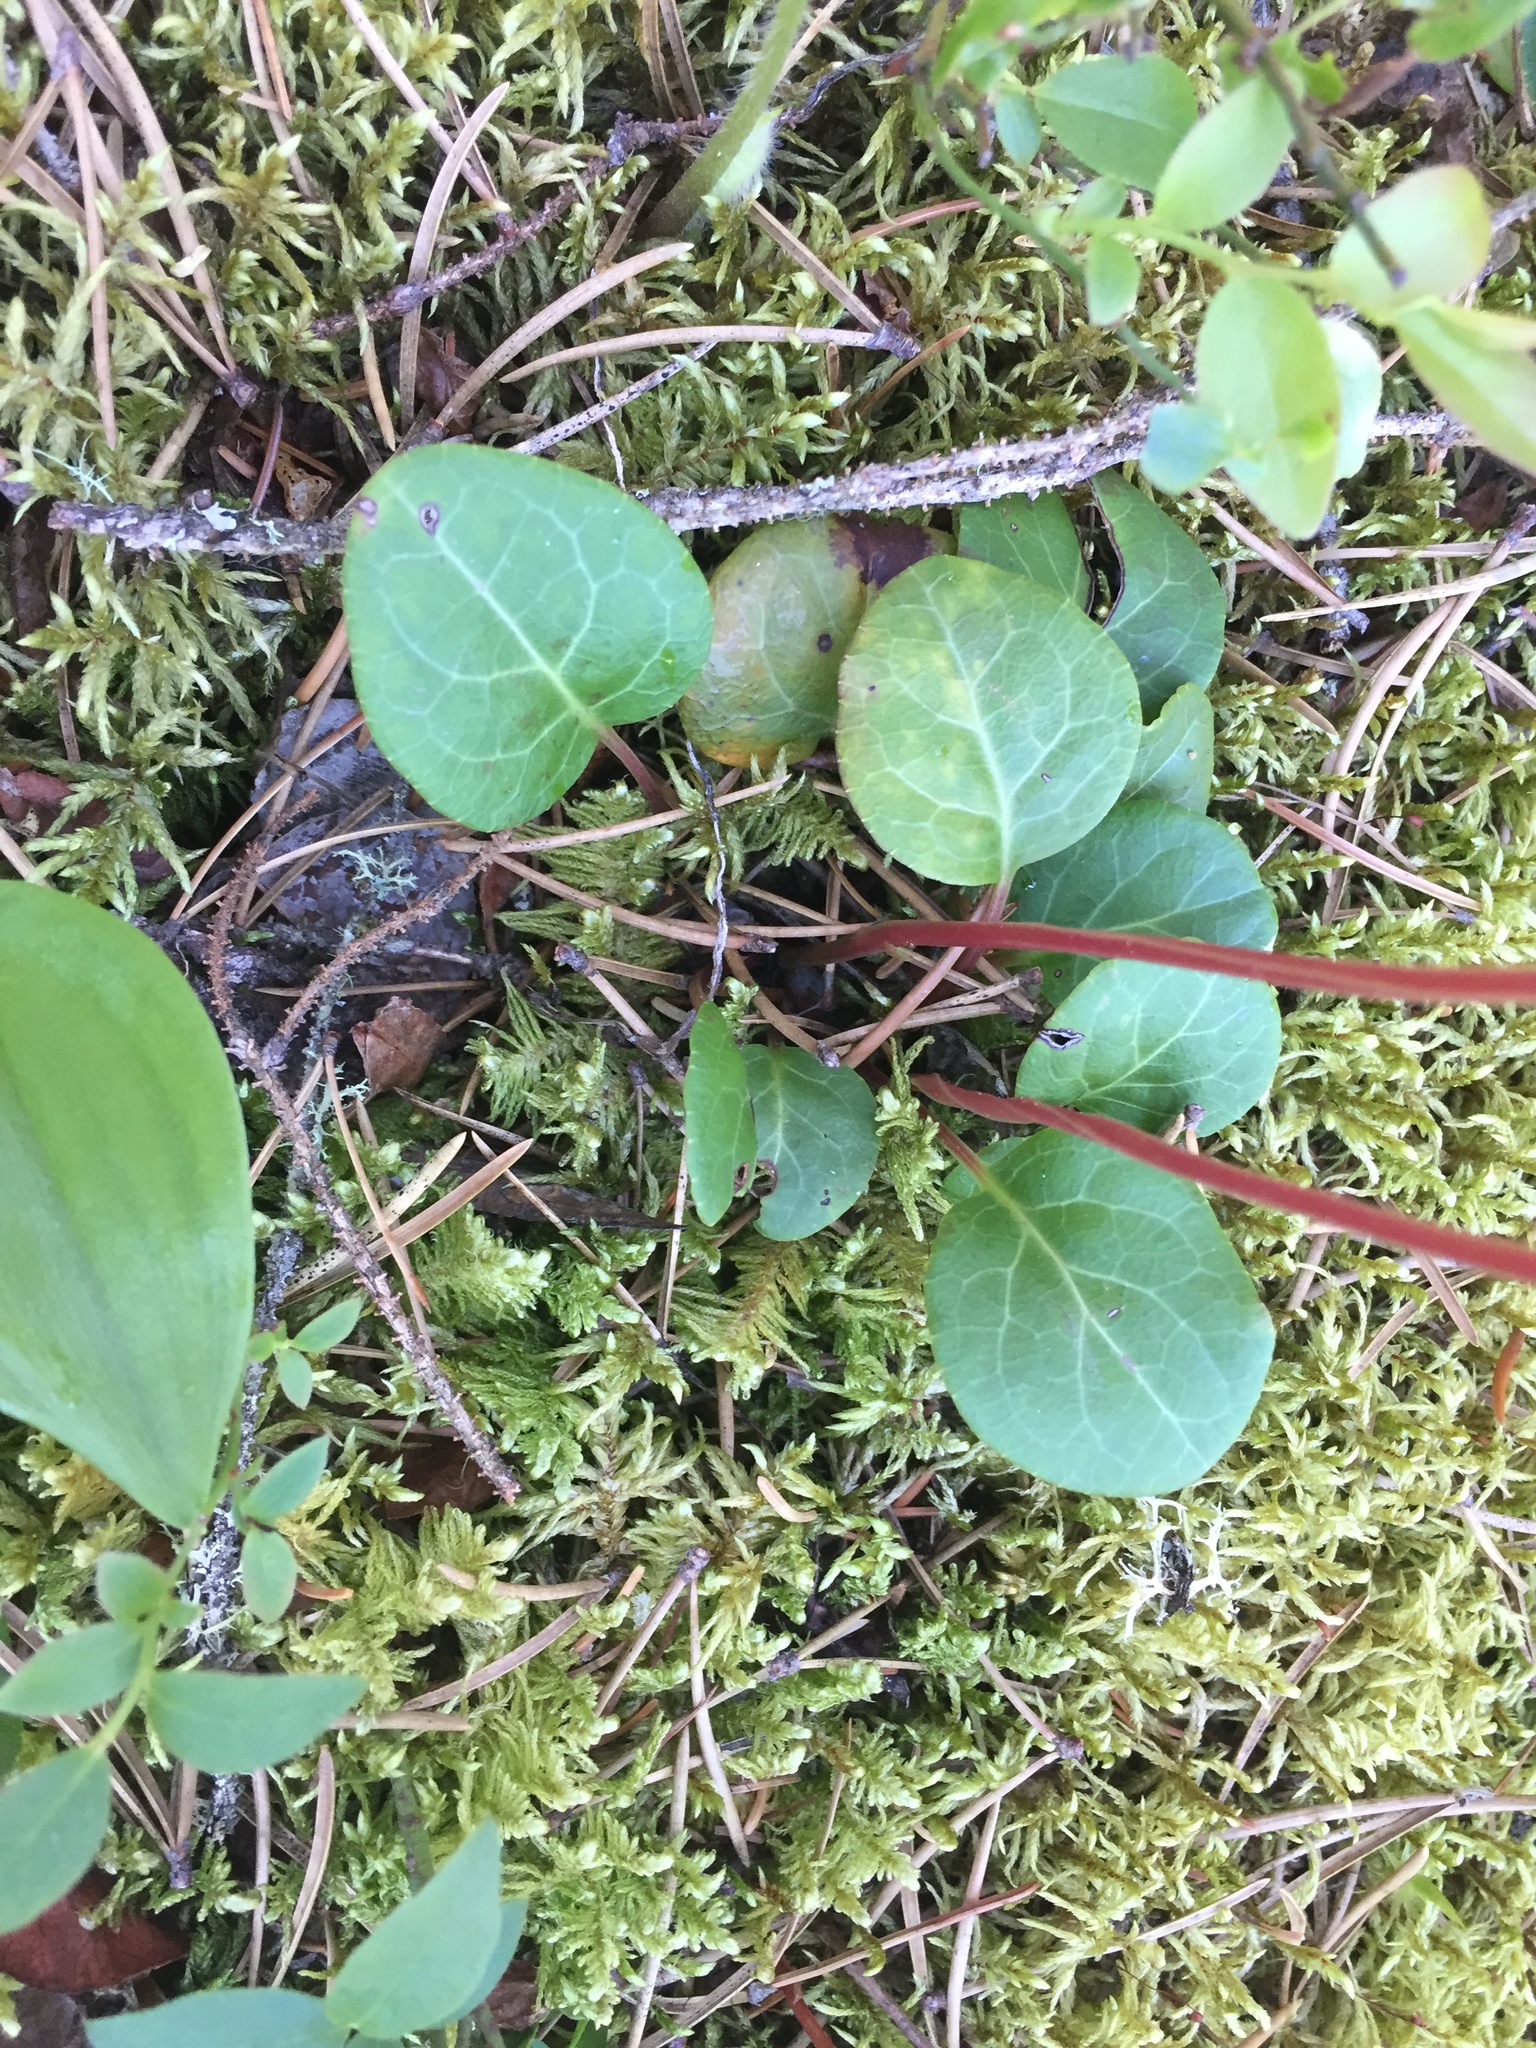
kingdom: Plantae
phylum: Tracheophyta
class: Magnoliopsida
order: Ericales
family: Ericaceae
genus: Pyrola
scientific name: Pyrola chlorantha
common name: Green wintergreen
